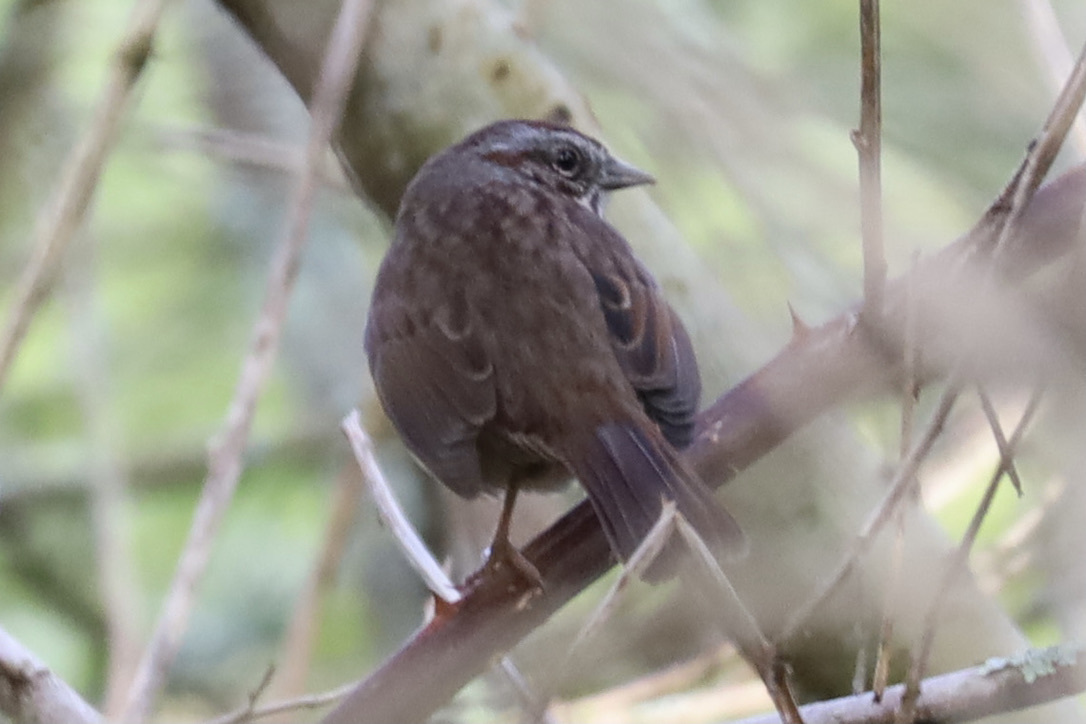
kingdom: Animalia
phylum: Chordata
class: Aves
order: Passeriformes
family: Passerellidae
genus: Melospiza
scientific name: Melospiza melodia
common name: Song sparrow
